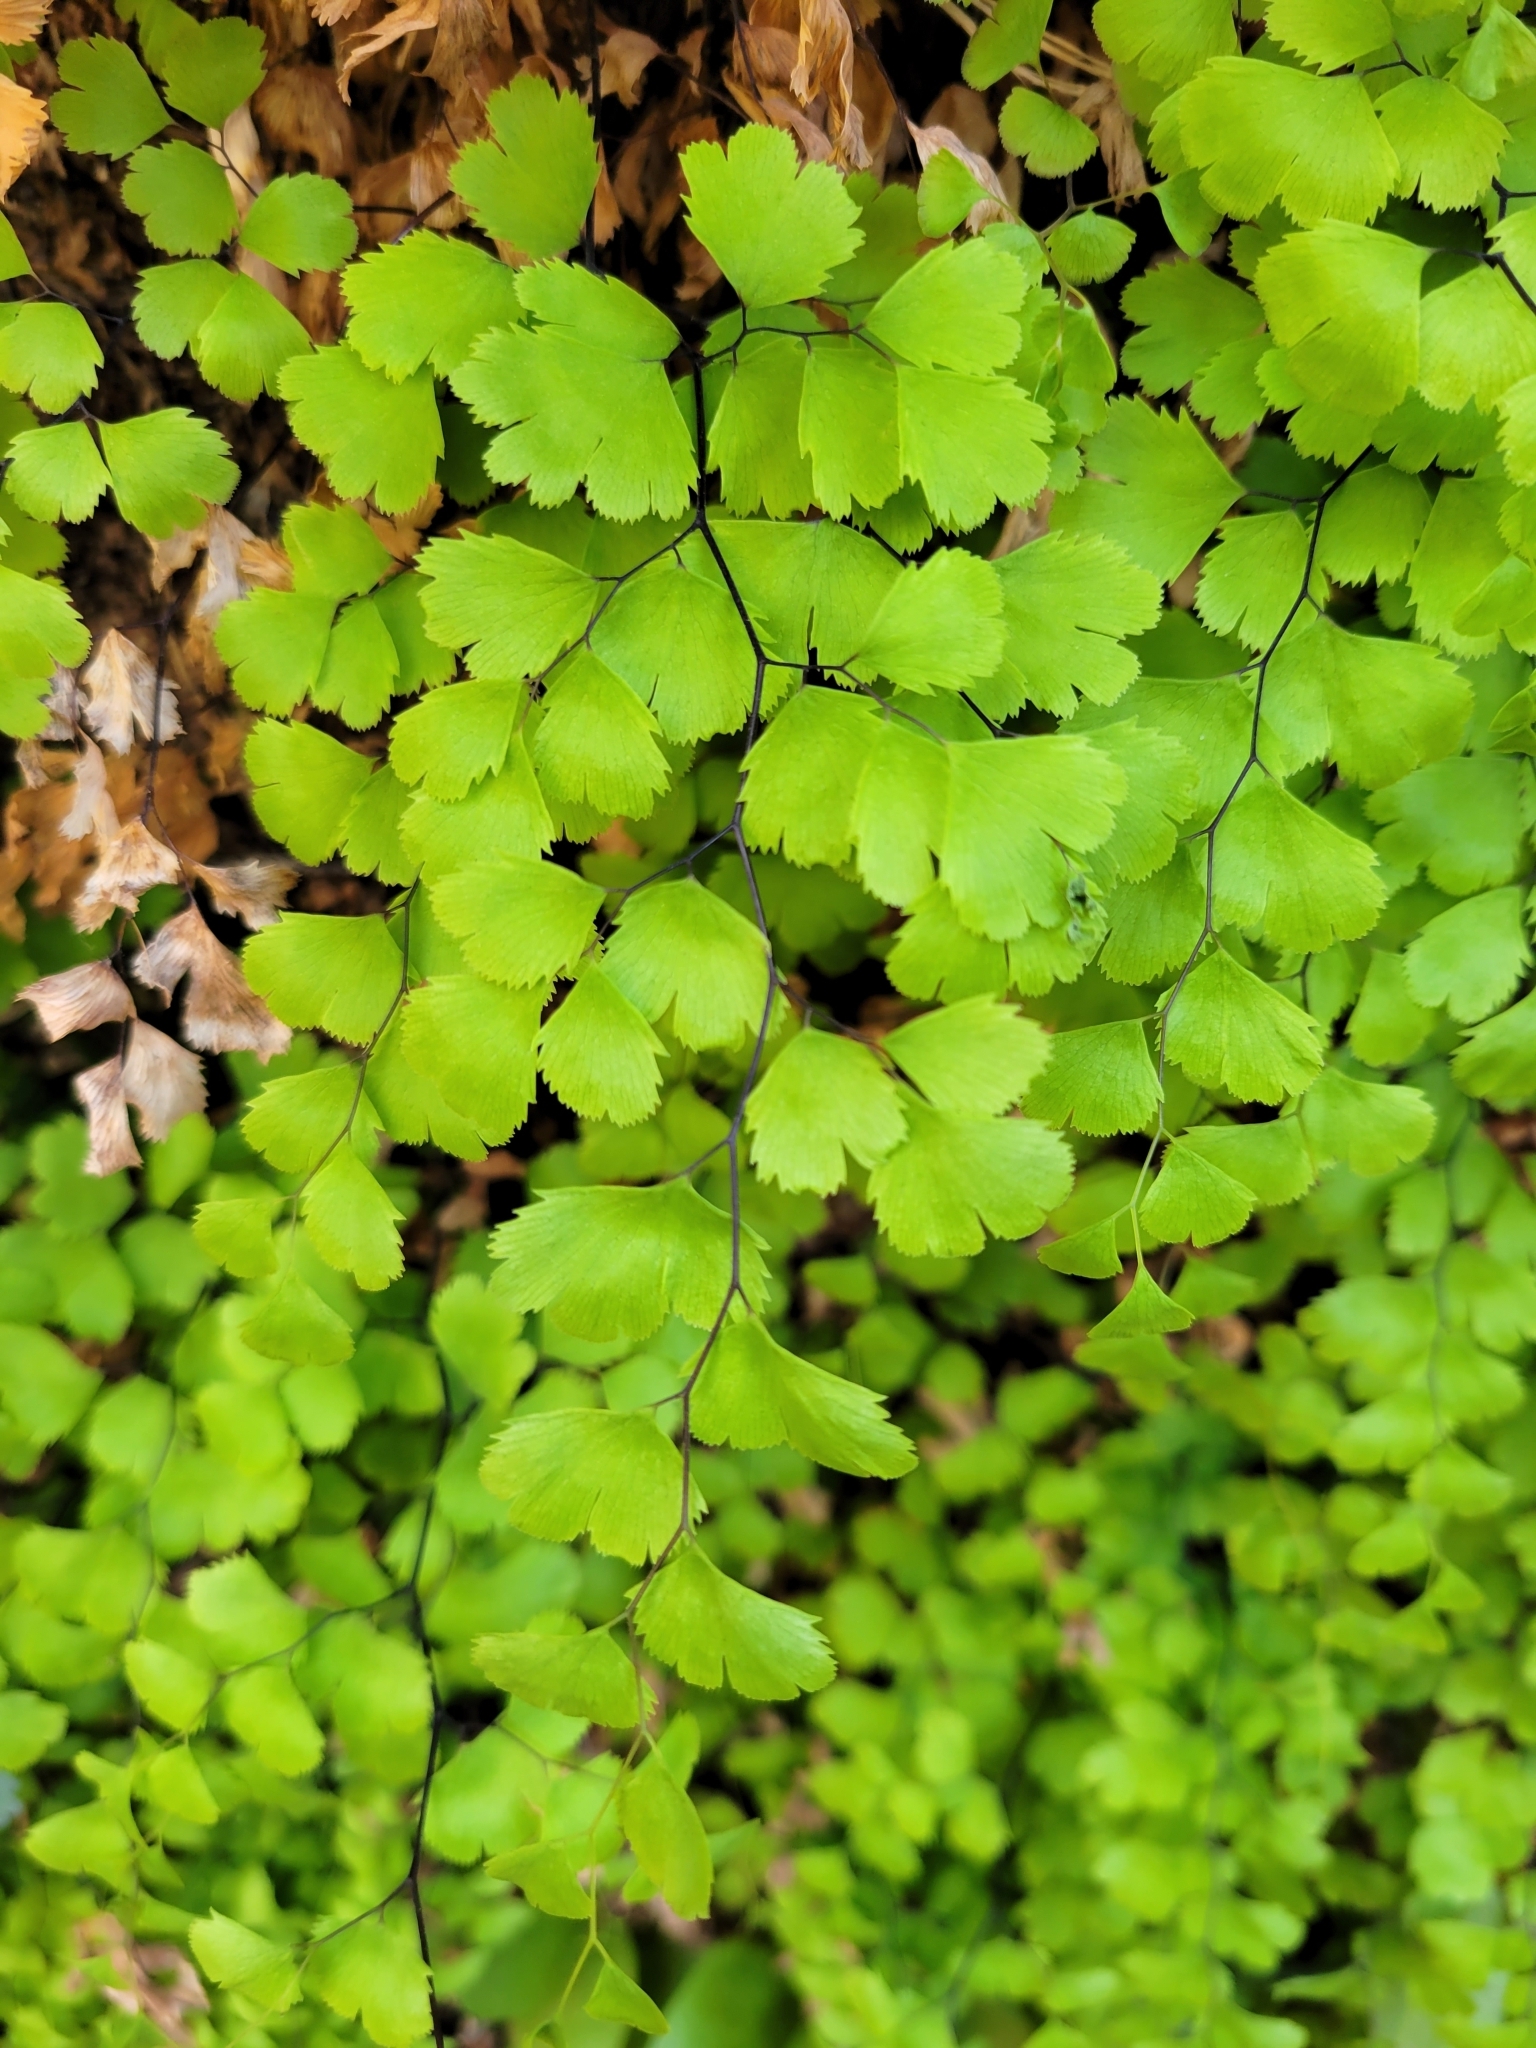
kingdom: Plantae
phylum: Tracheophyta
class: Polypodiopsida
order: Polypodiales
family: Pteridaceae
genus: Adiantum
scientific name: Adiantum capillus-veneris
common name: Maidenhair fern
